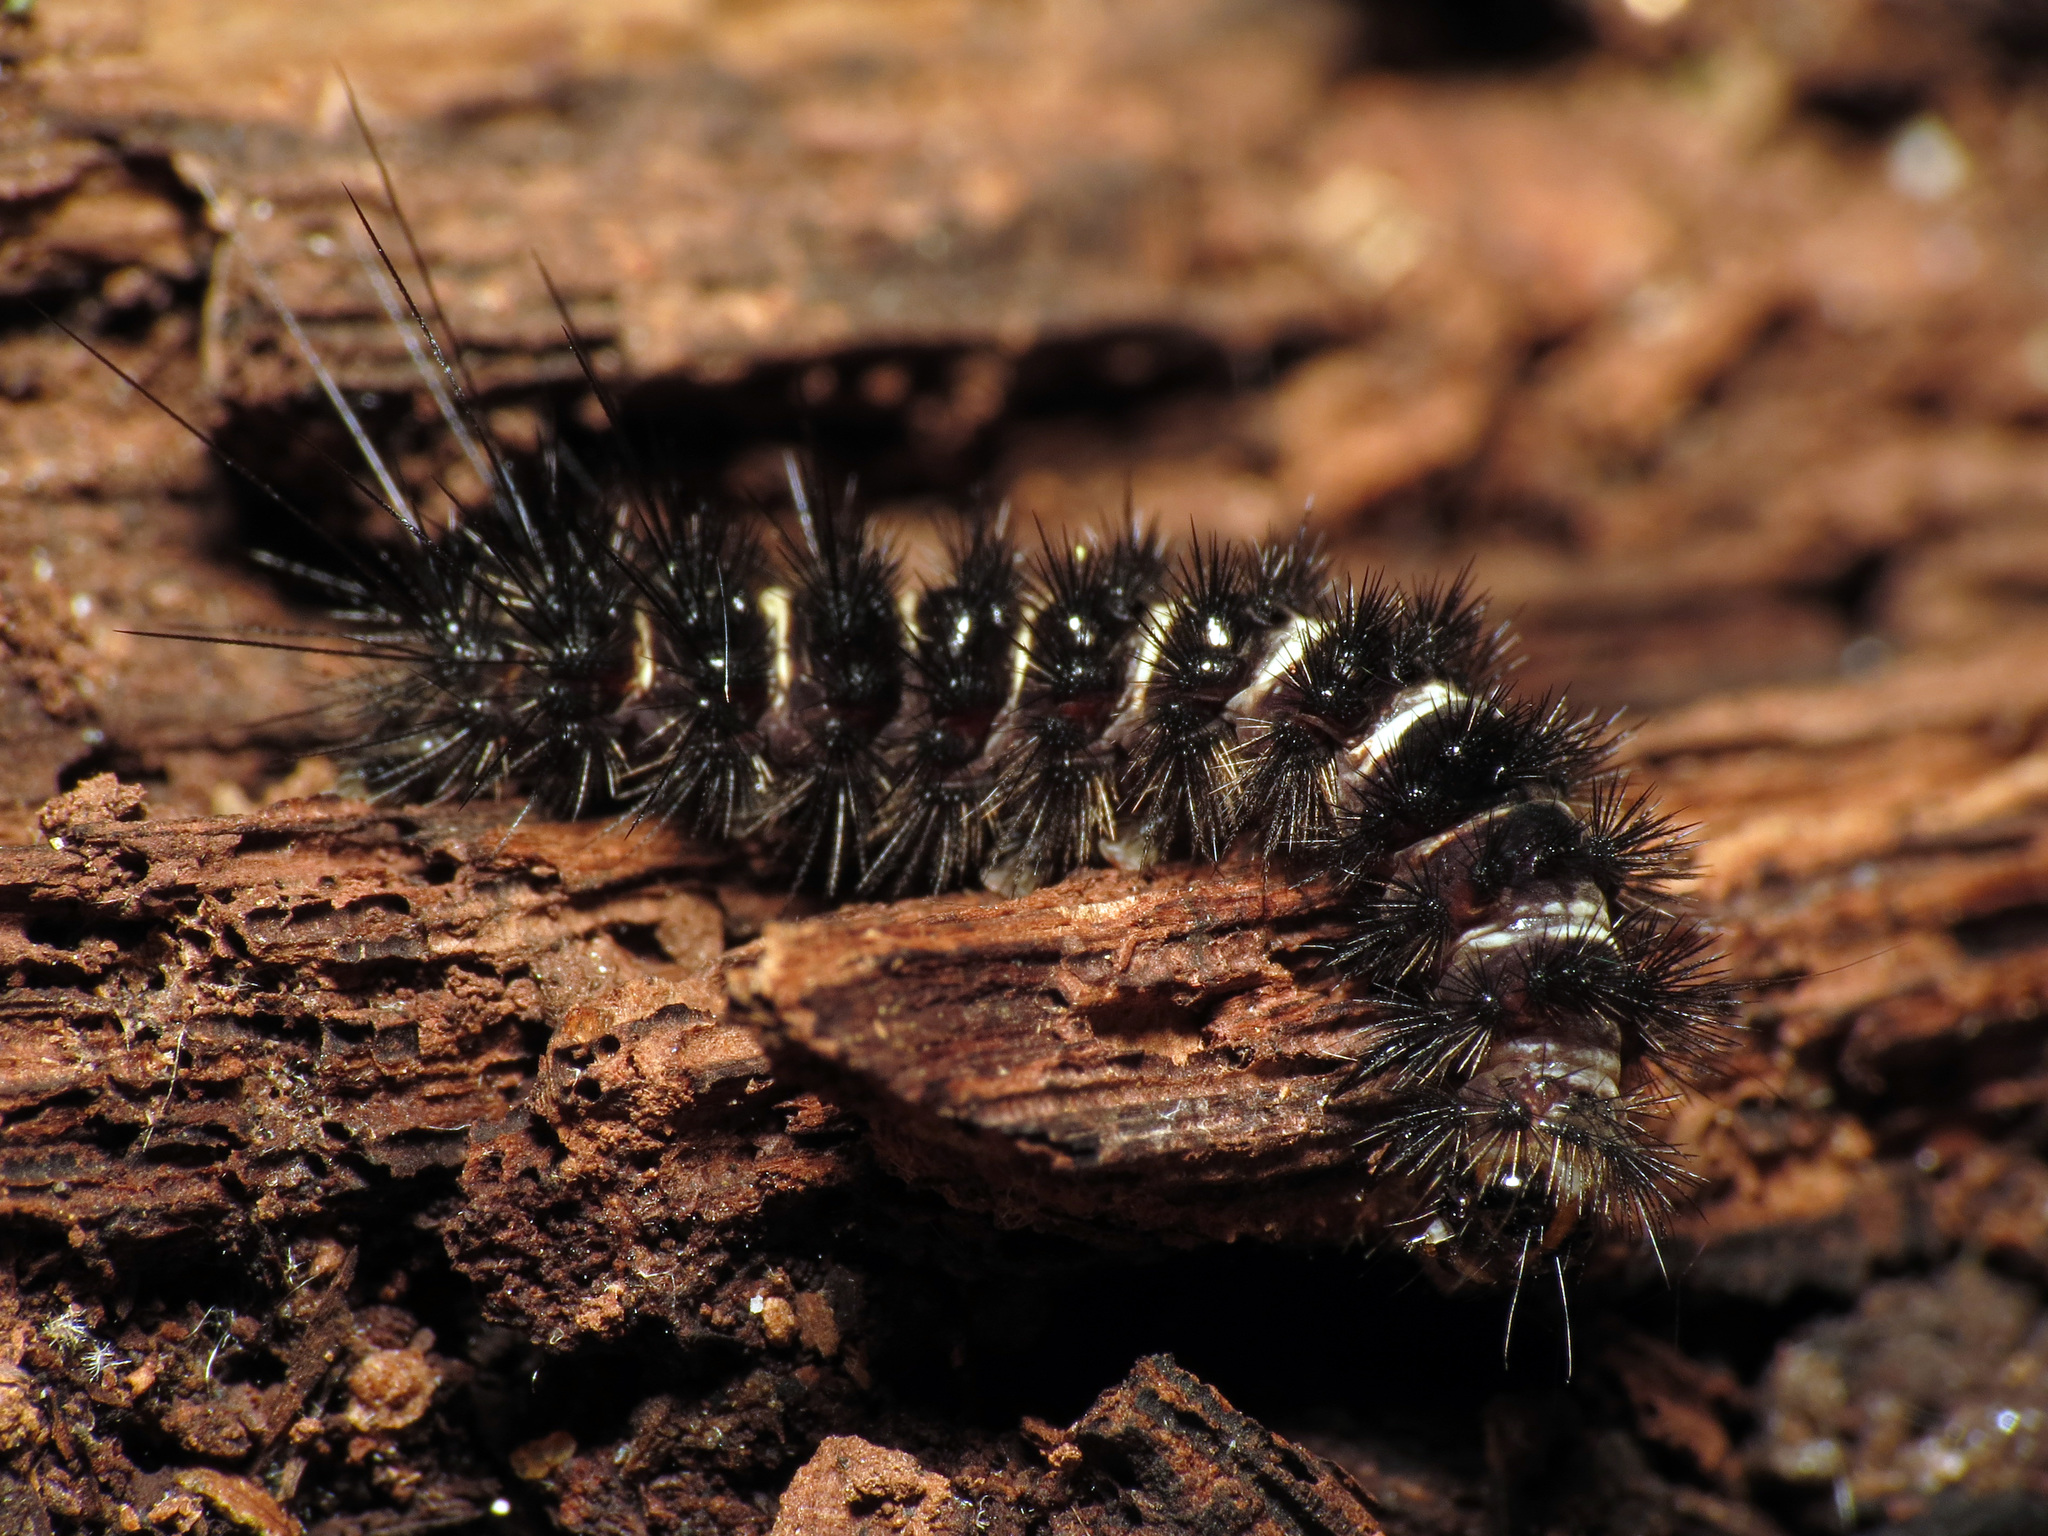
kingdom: Animalia
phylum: Arthropoda
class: Insecta
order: Lepidoptera
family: Erebidae
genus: Spilosoma
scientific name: Spilosoma congrua
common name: Agreeable tiger moth
